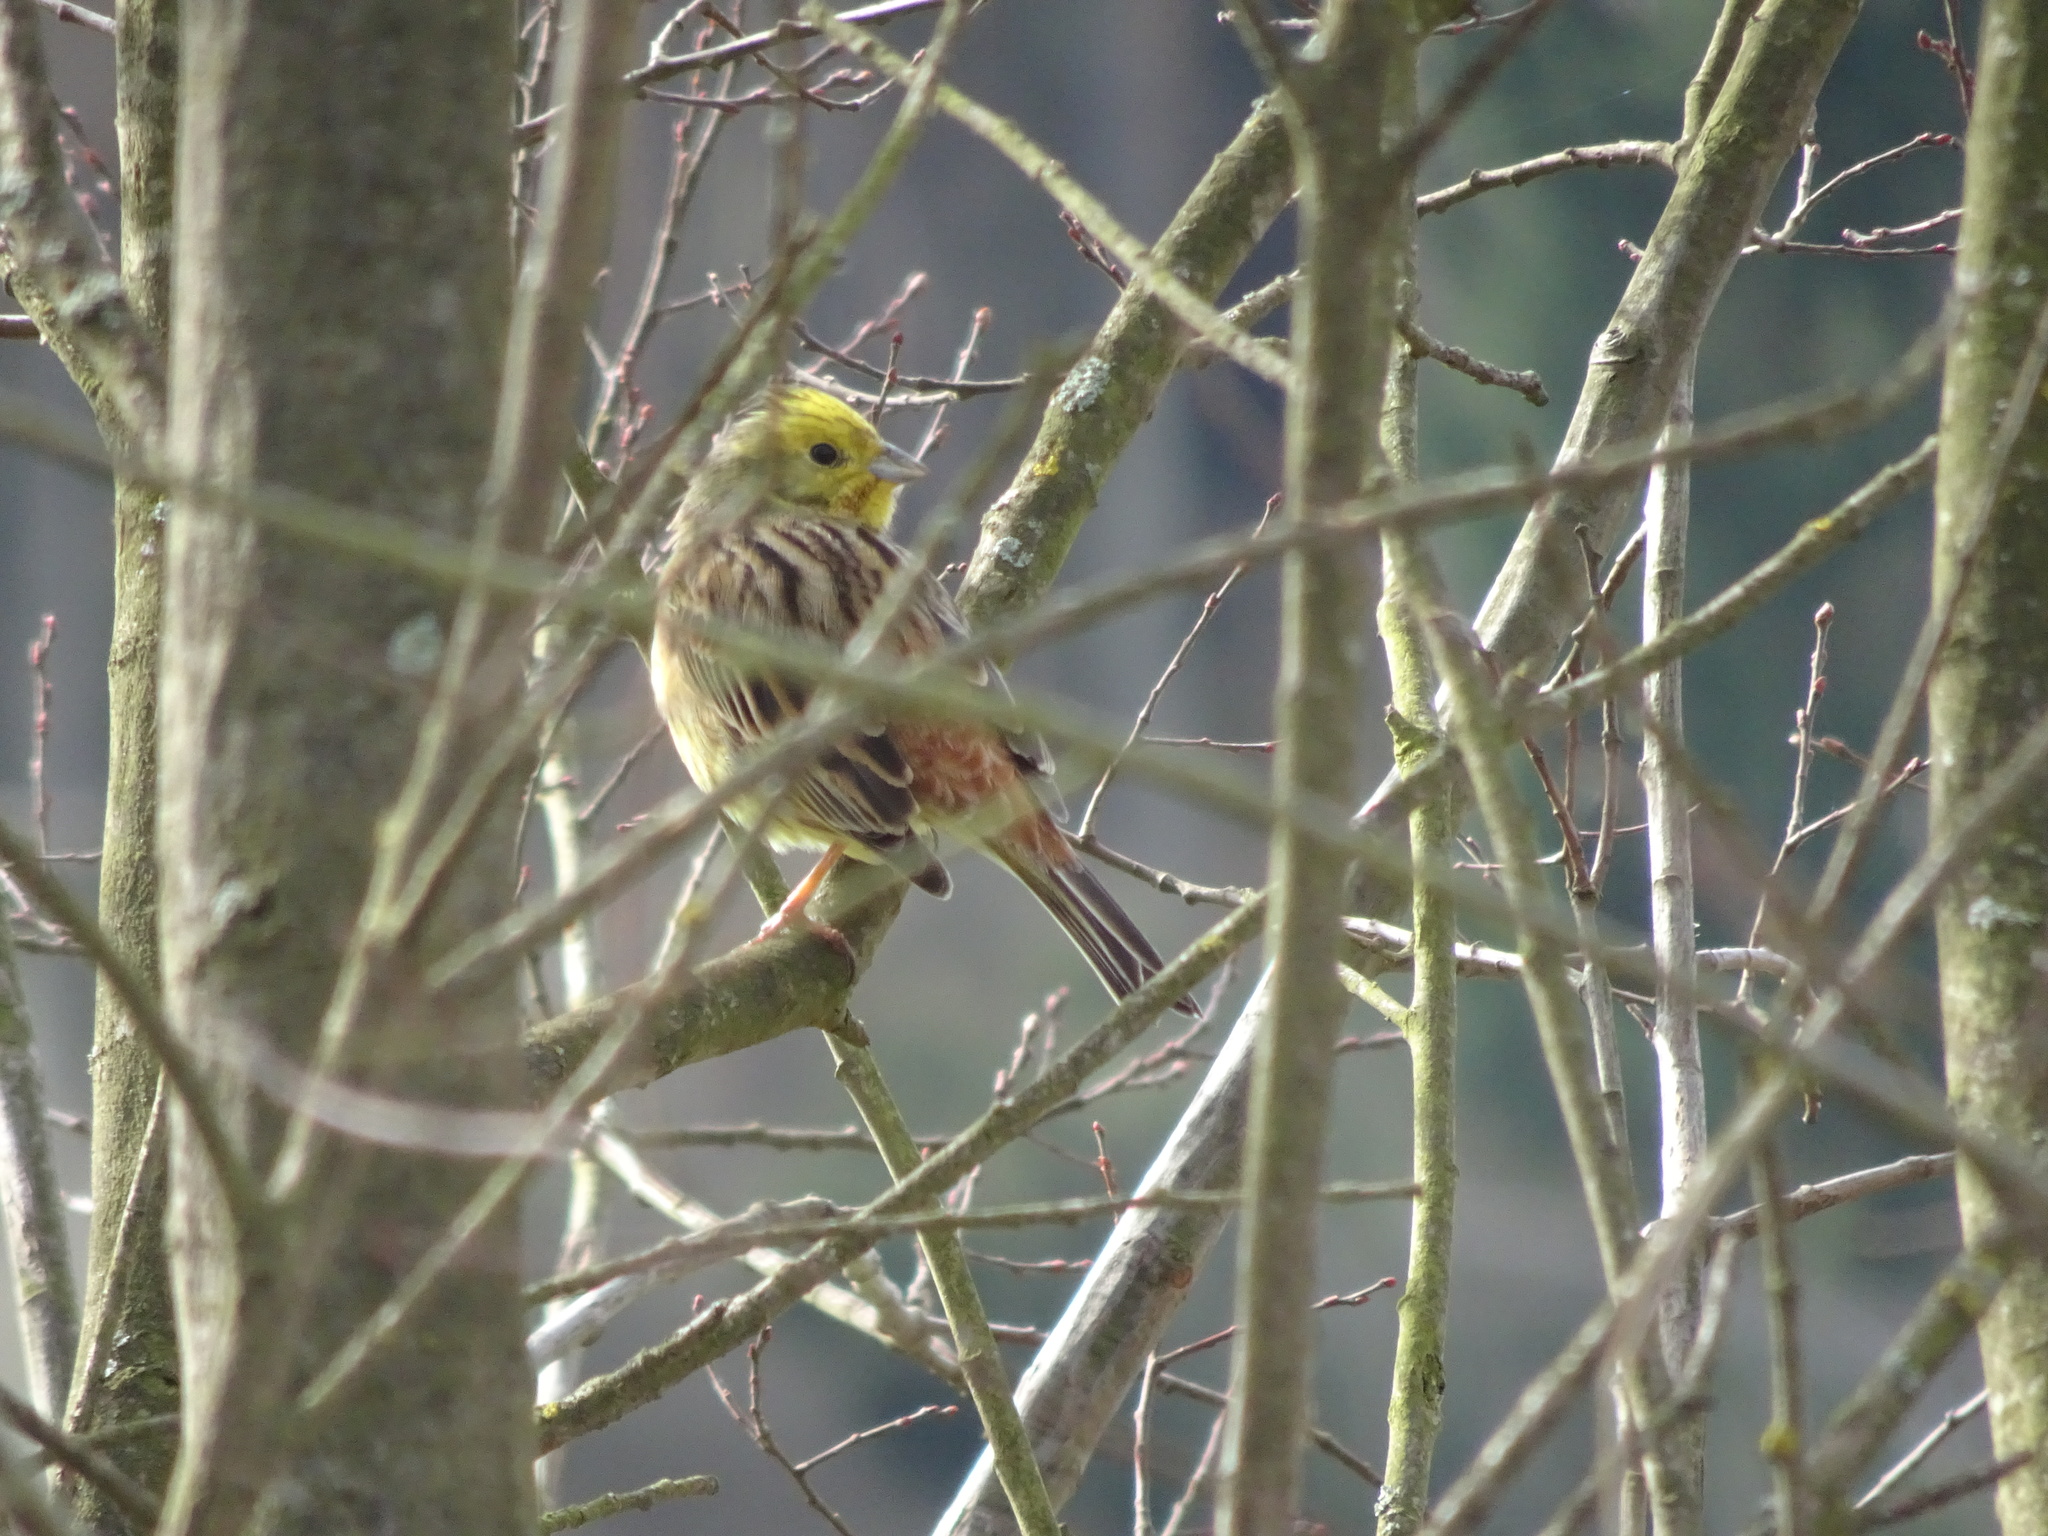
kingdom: Animalia
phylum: Chordata
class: Aves
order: Passeriformes
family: Emberizidae
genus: Emberiza
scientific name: Emberiza citrinella
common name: Yellowhammer
